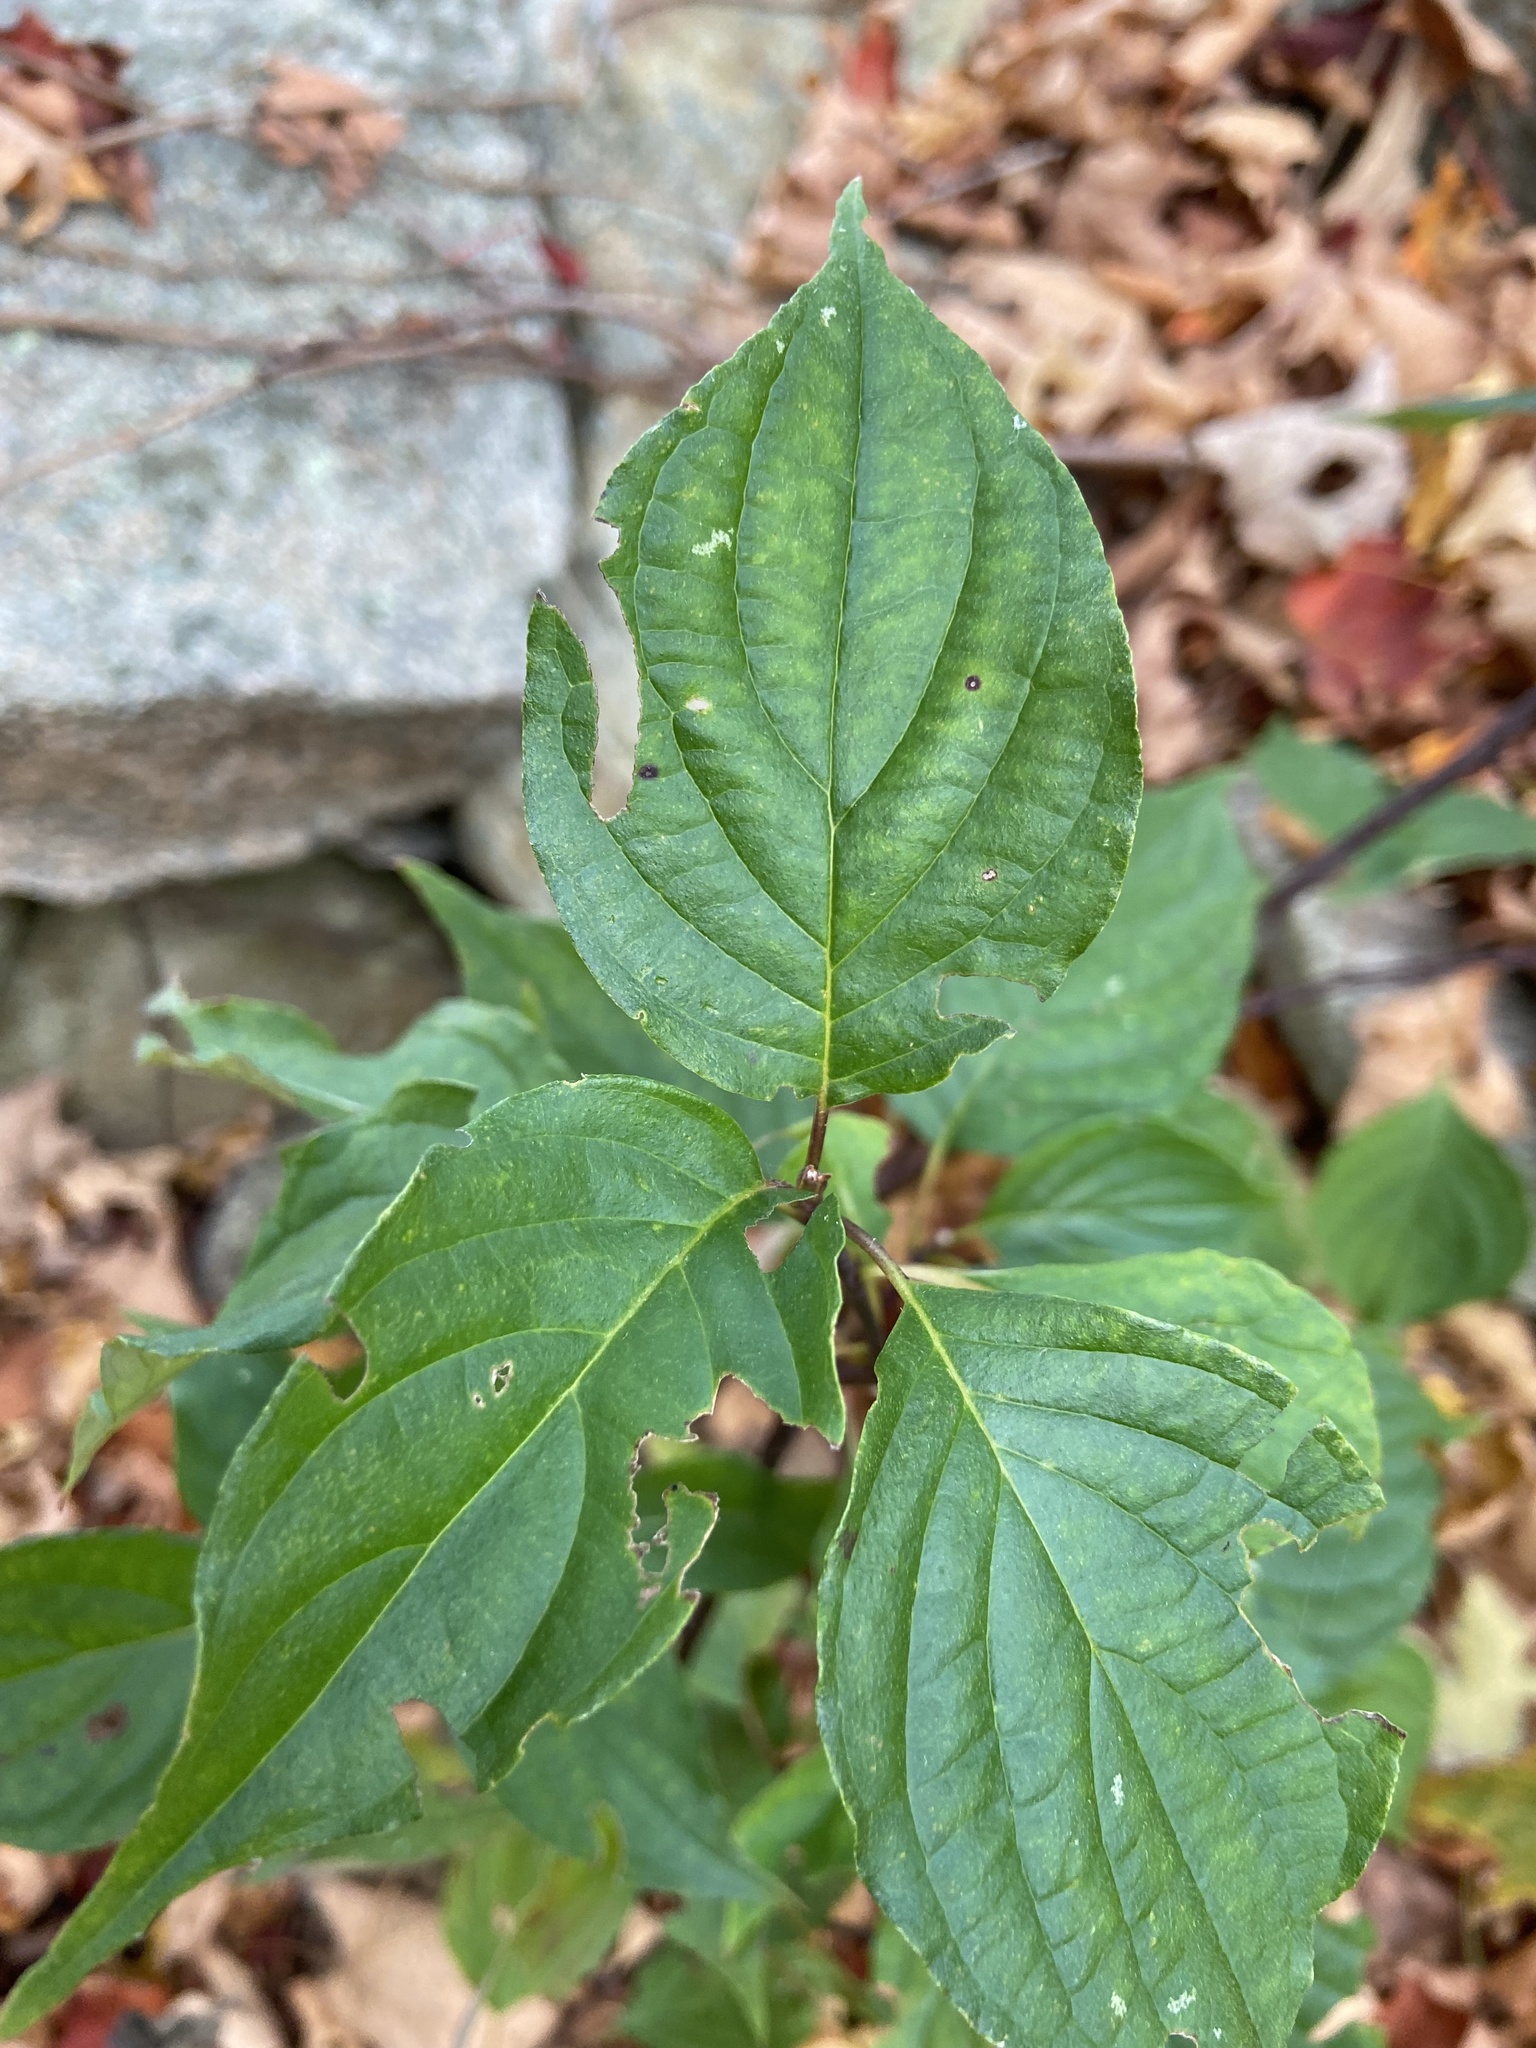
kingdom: Plantae
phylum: Tracheophyta
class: Magnoliopsida
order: Cornales
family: Cornaceae
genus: Cornus
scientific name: Cornus alternifolia
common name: Pagoda dogwood
